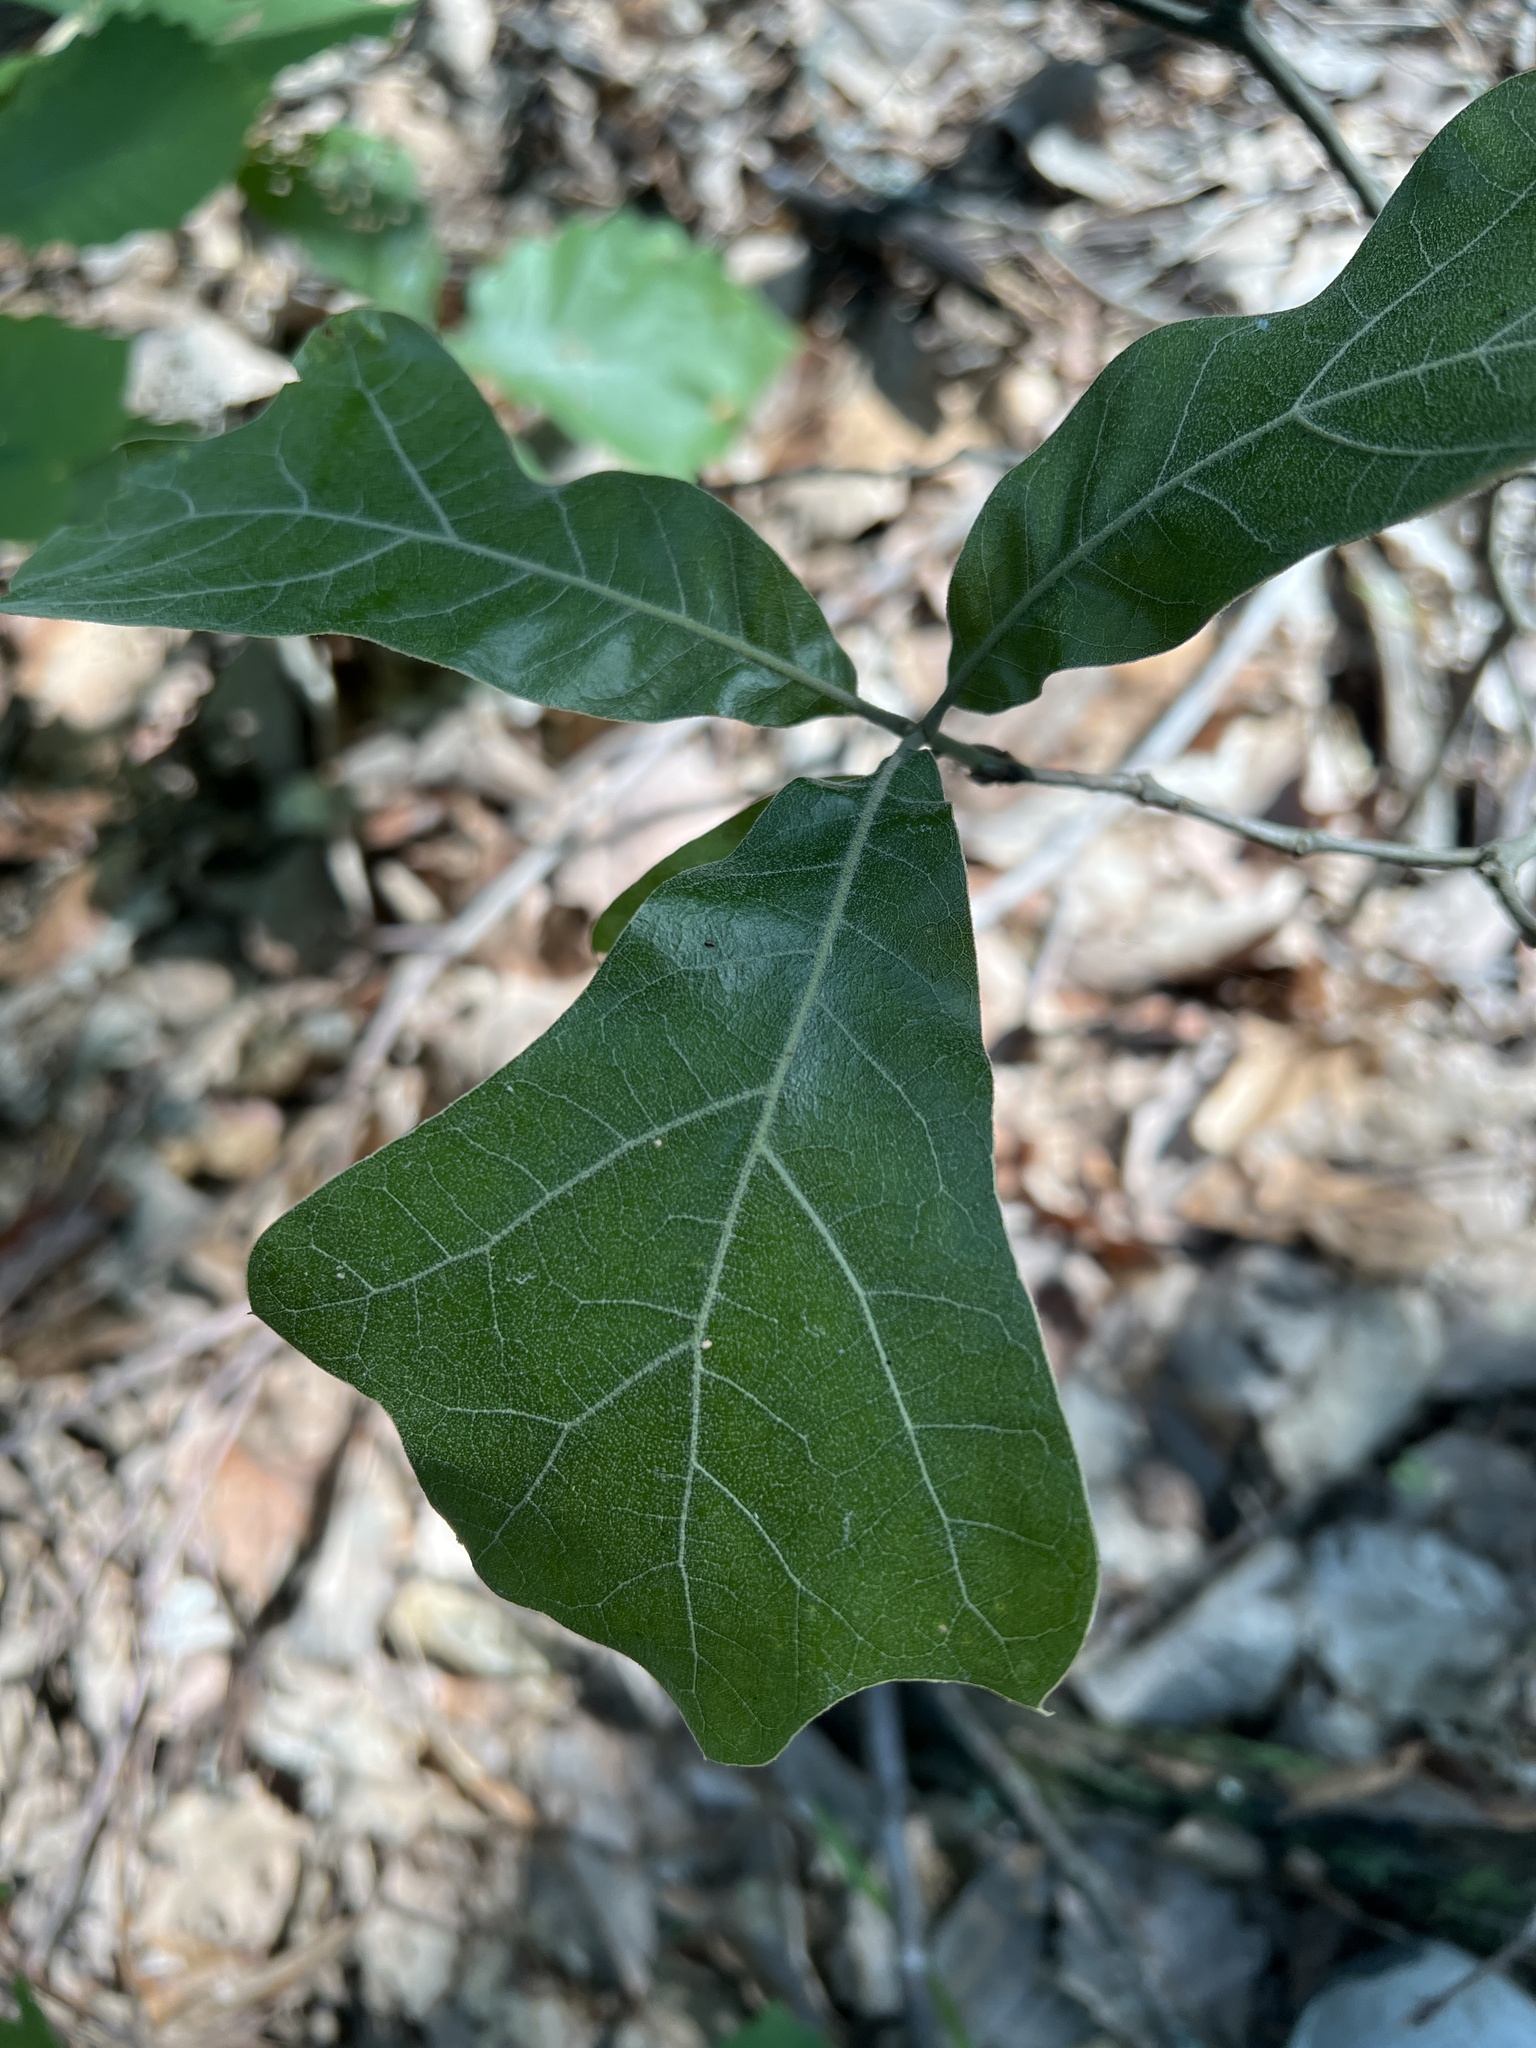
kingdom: Plantae
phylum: Tracheophyta
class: Magnoliopsida
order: Fagales
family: Fagaceae
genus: Quercus
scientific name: Quercus marilandica
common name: Blackjack oak
